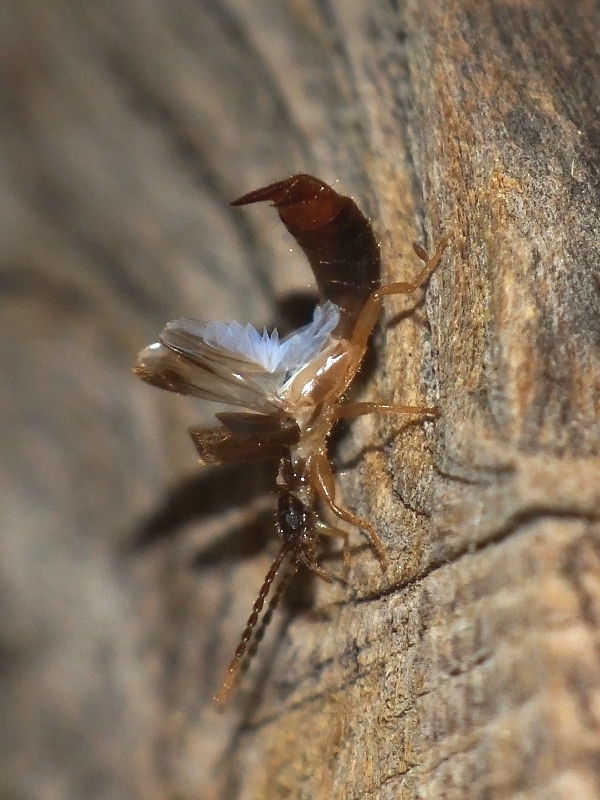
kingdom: Animalia
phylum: Arthropoda
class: Insecta
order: Dermaptera
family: Spongiphoridae
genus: Labia
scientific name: Labia minor
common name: Lesser earwig
